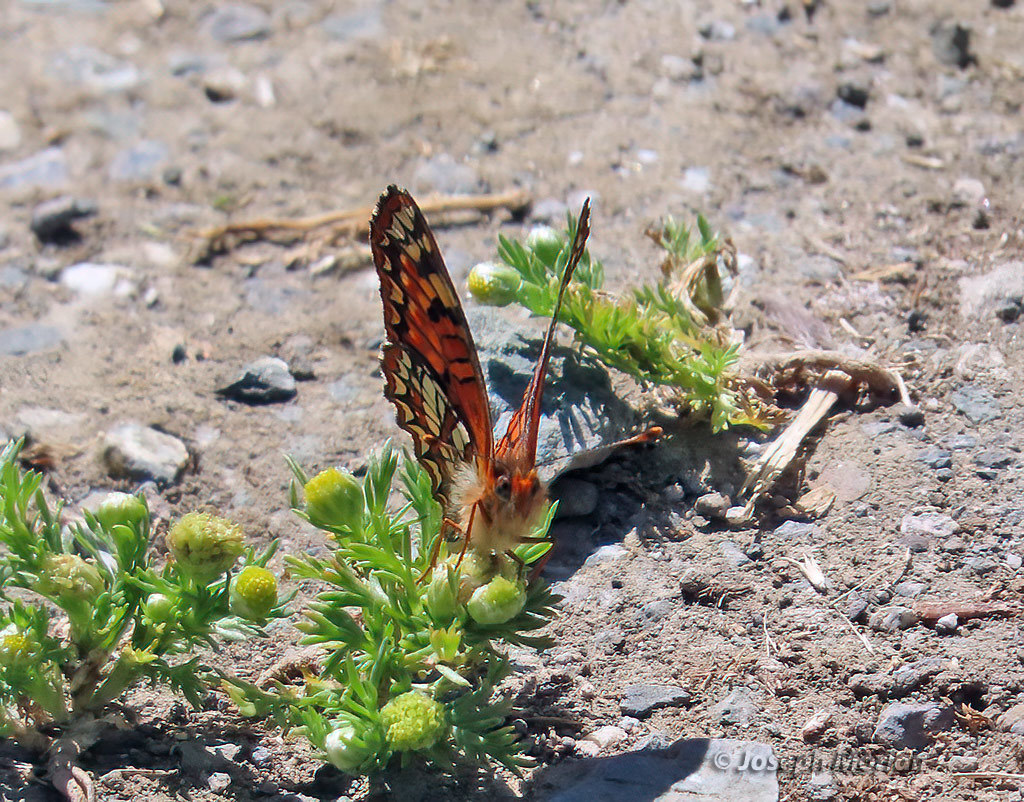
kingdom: Animalia
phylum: Arthropoda
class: Insecta
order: Lepidoptera
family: Nymphalidae
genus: Chlosyne
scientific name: Chlosyne palla
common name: Northern checkerspot
